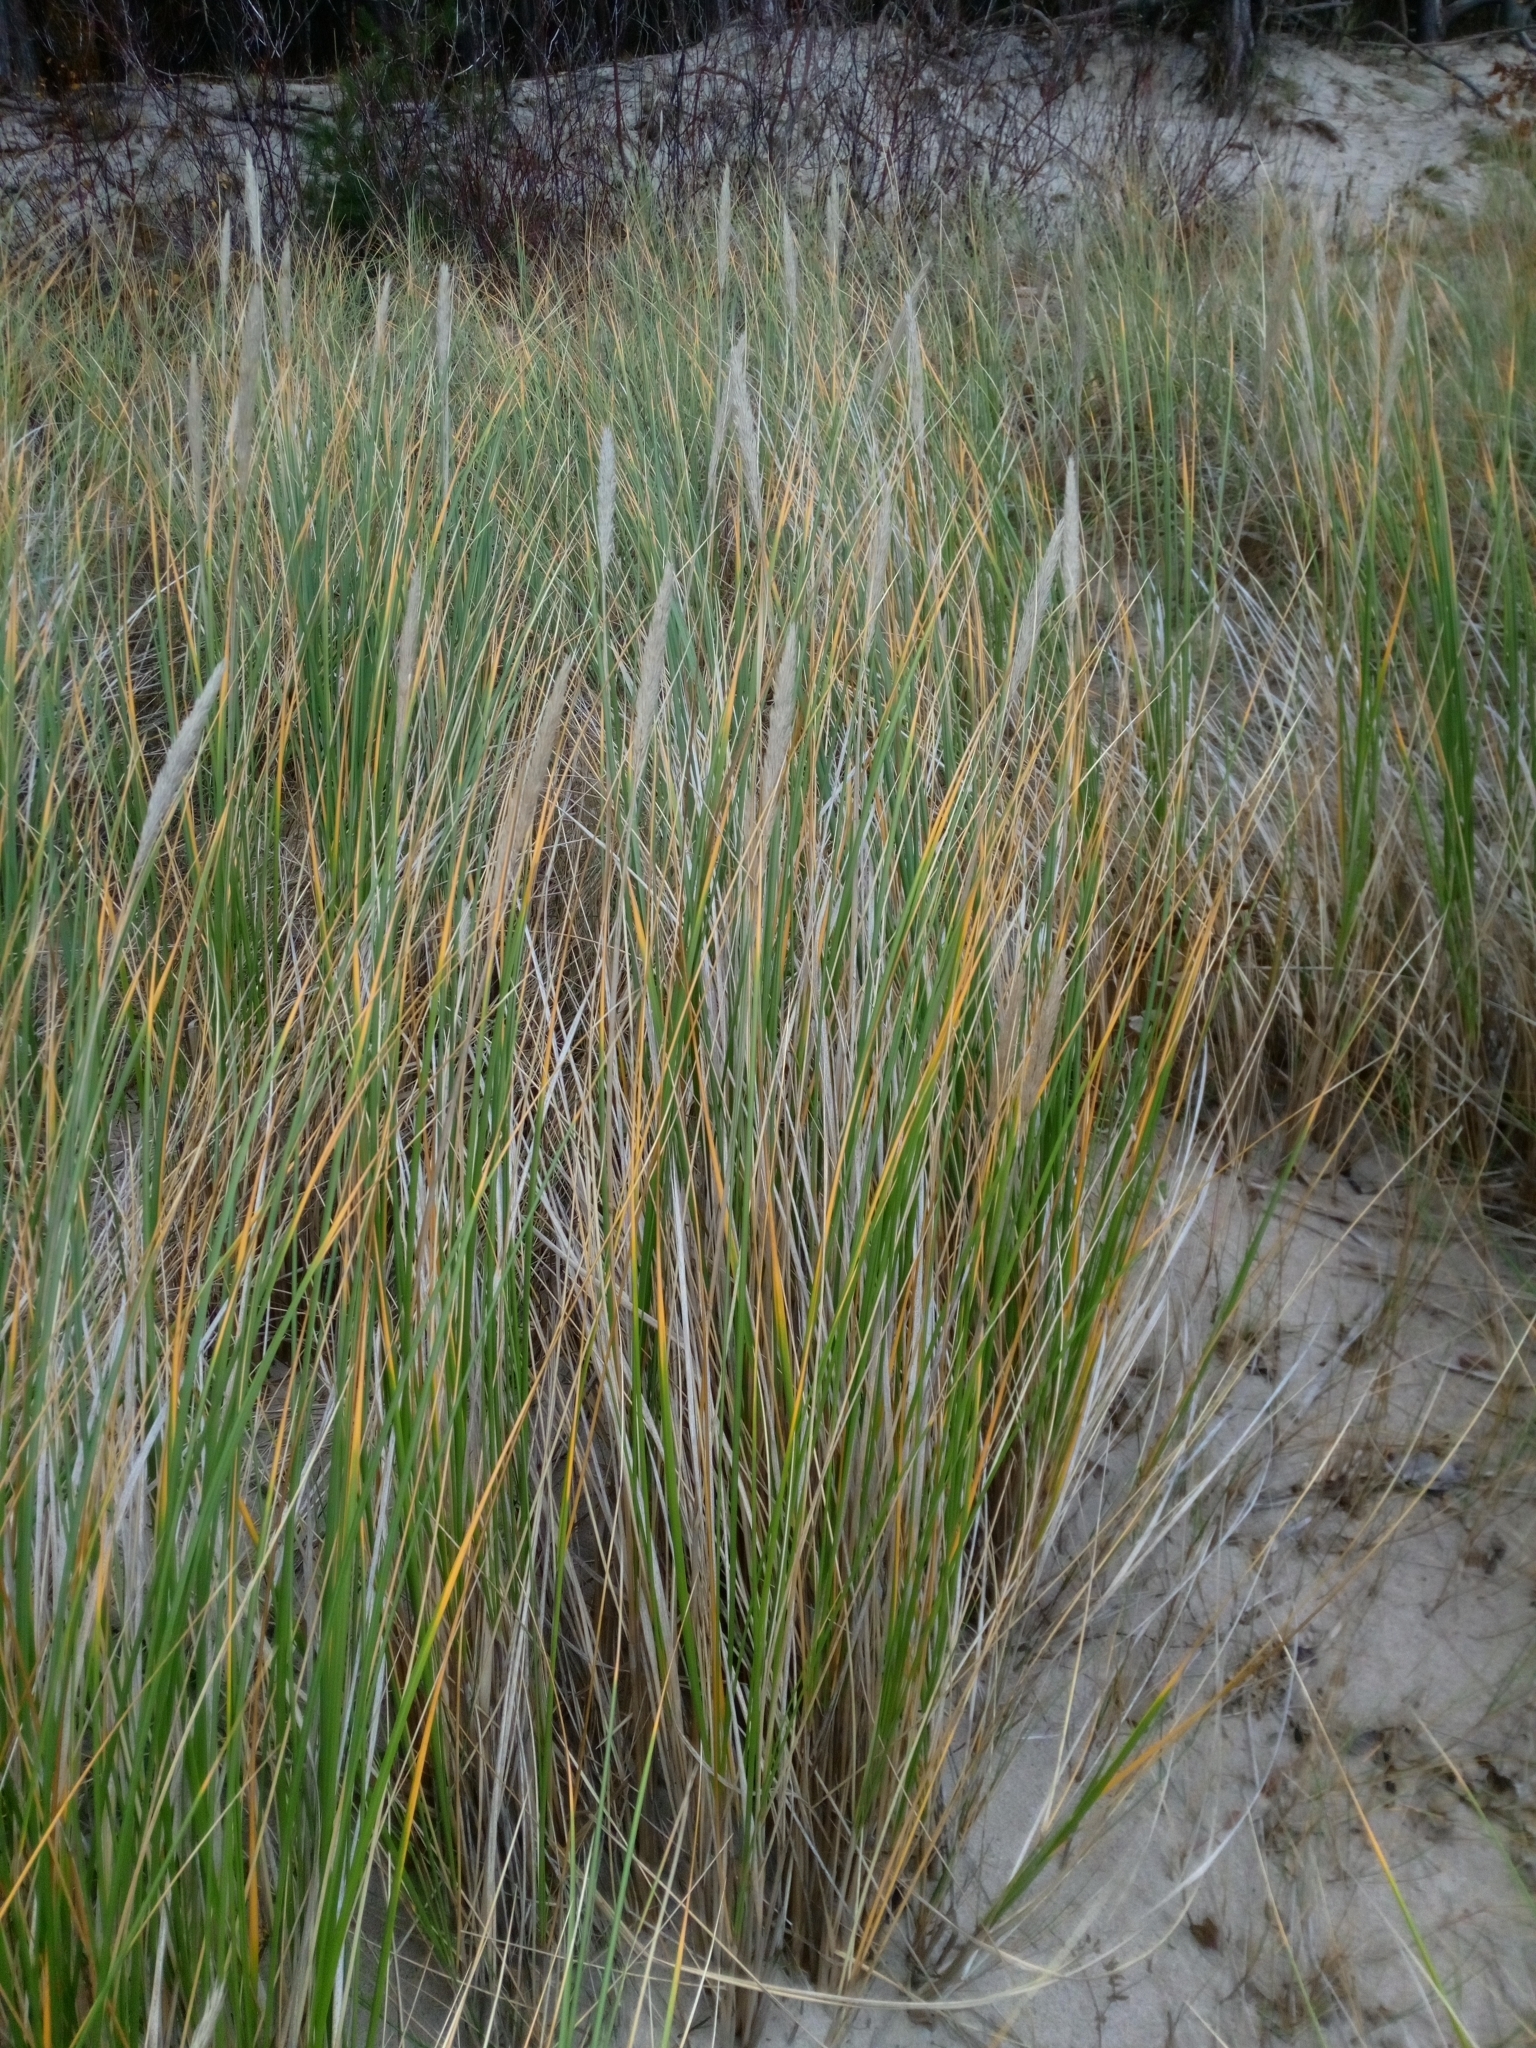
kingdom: Plantae
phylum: Tracheophyta
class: Liliopsida
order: Poales
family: Poaceae
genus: Calamagrostis
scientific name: Calamagrostis arenaria
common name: European beachgrass
